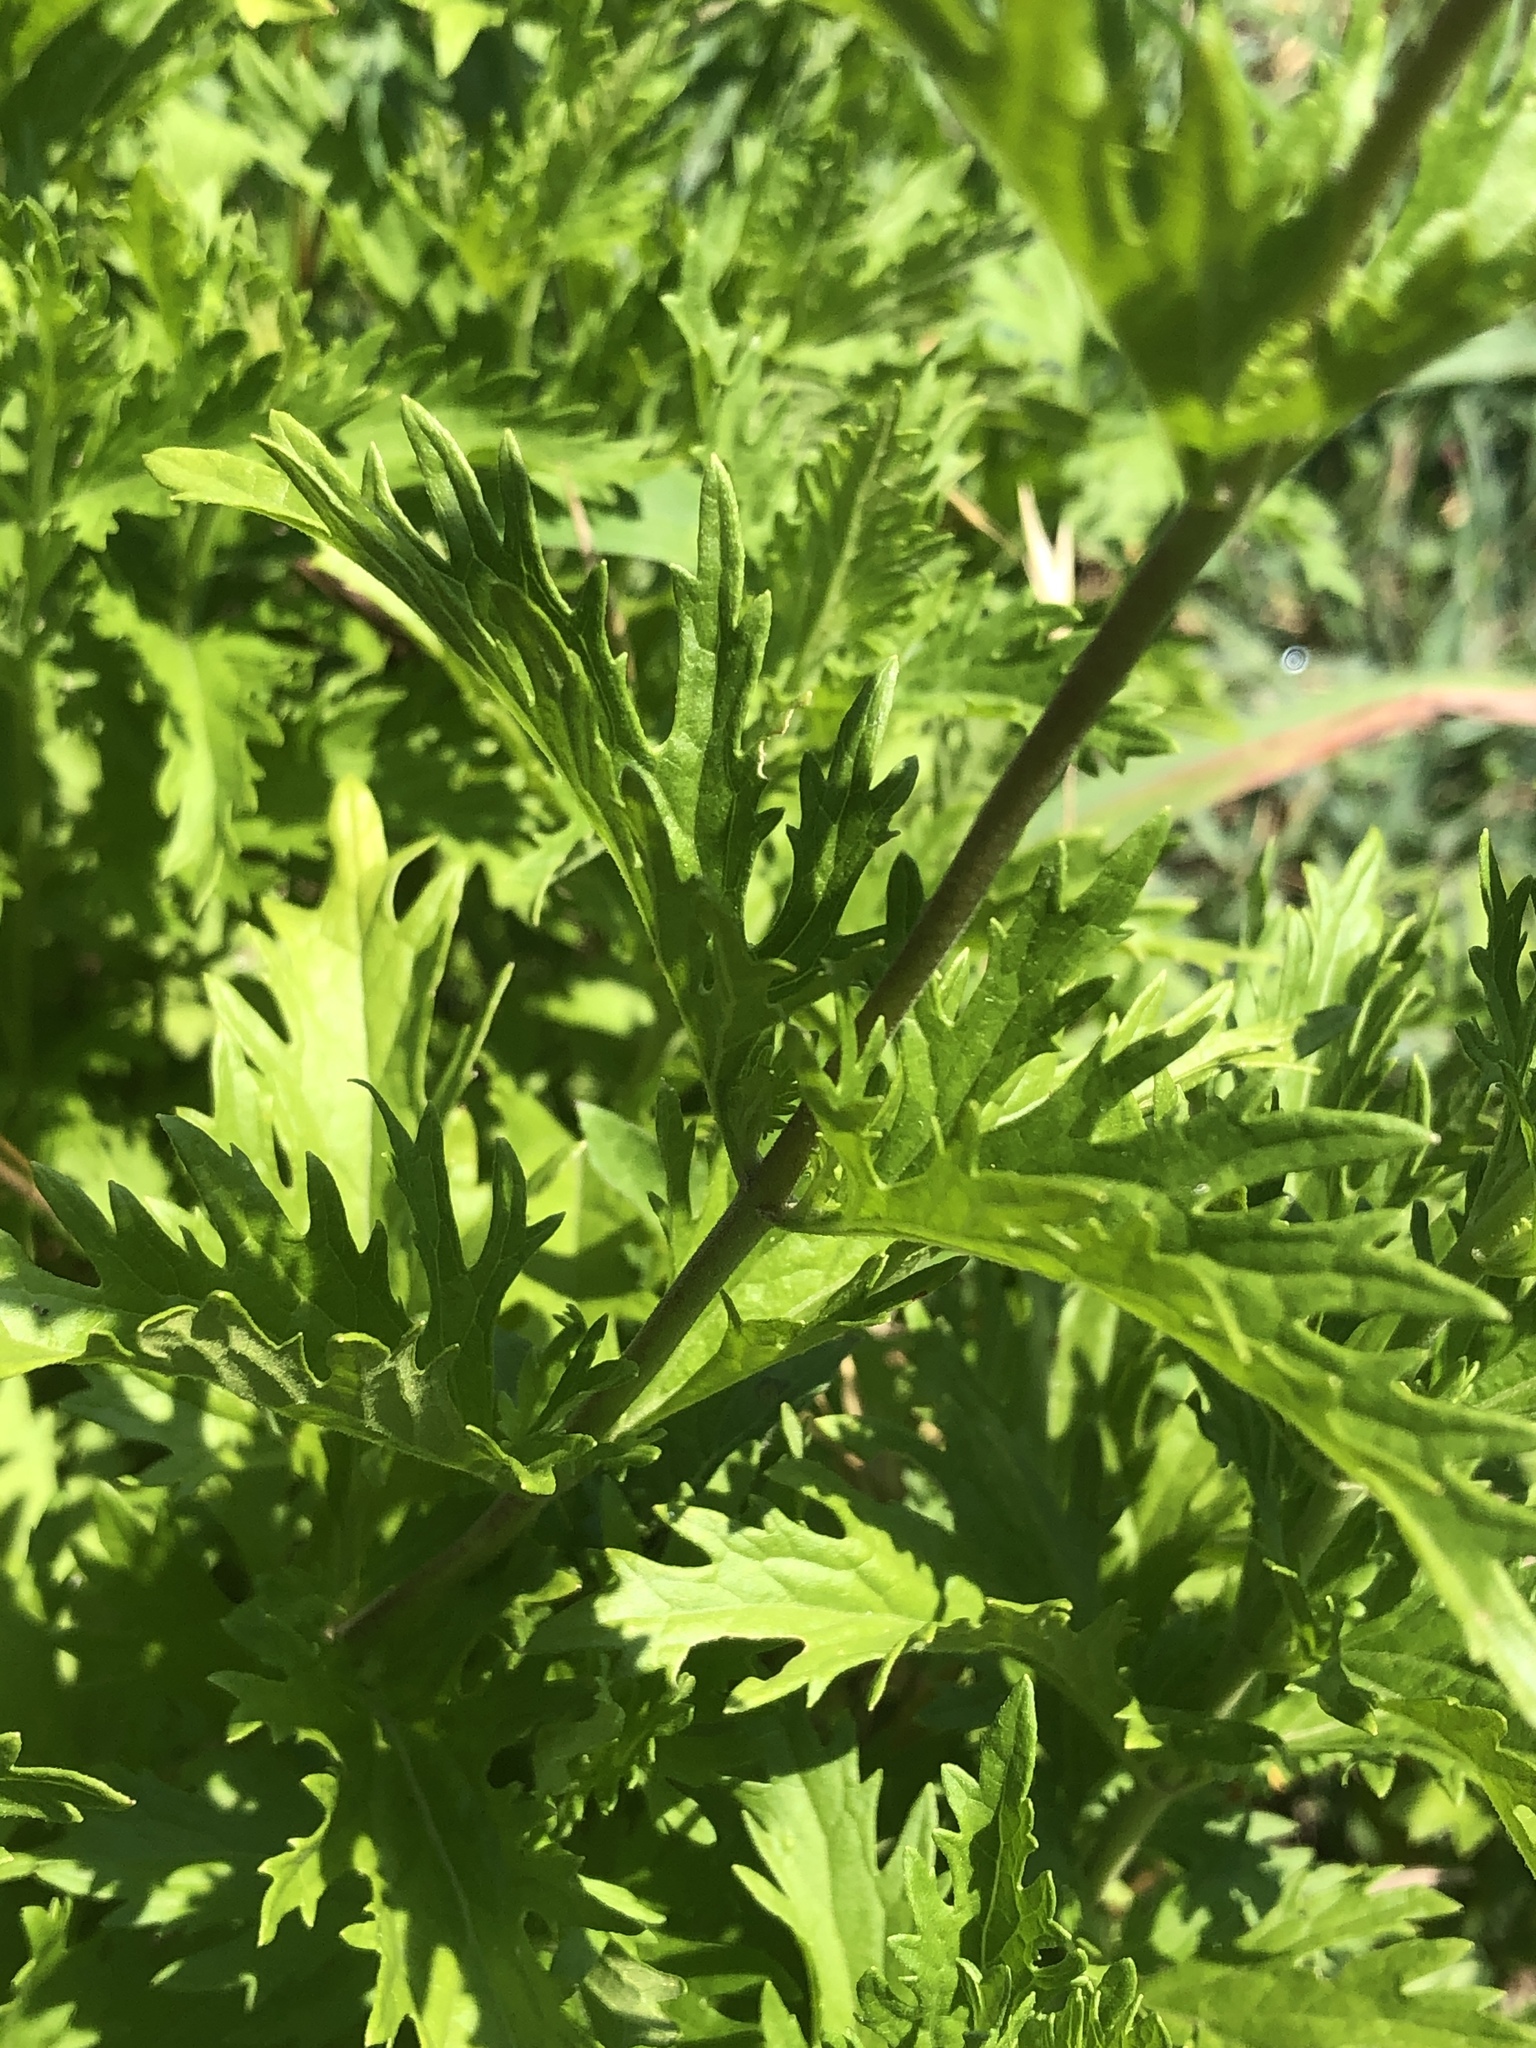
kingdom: Plantae
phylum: Tracheophyta
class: Magnoliopsida
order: Asterales
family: Asteraceae
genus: Conoclinium
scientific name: Conoclinium dissectum
